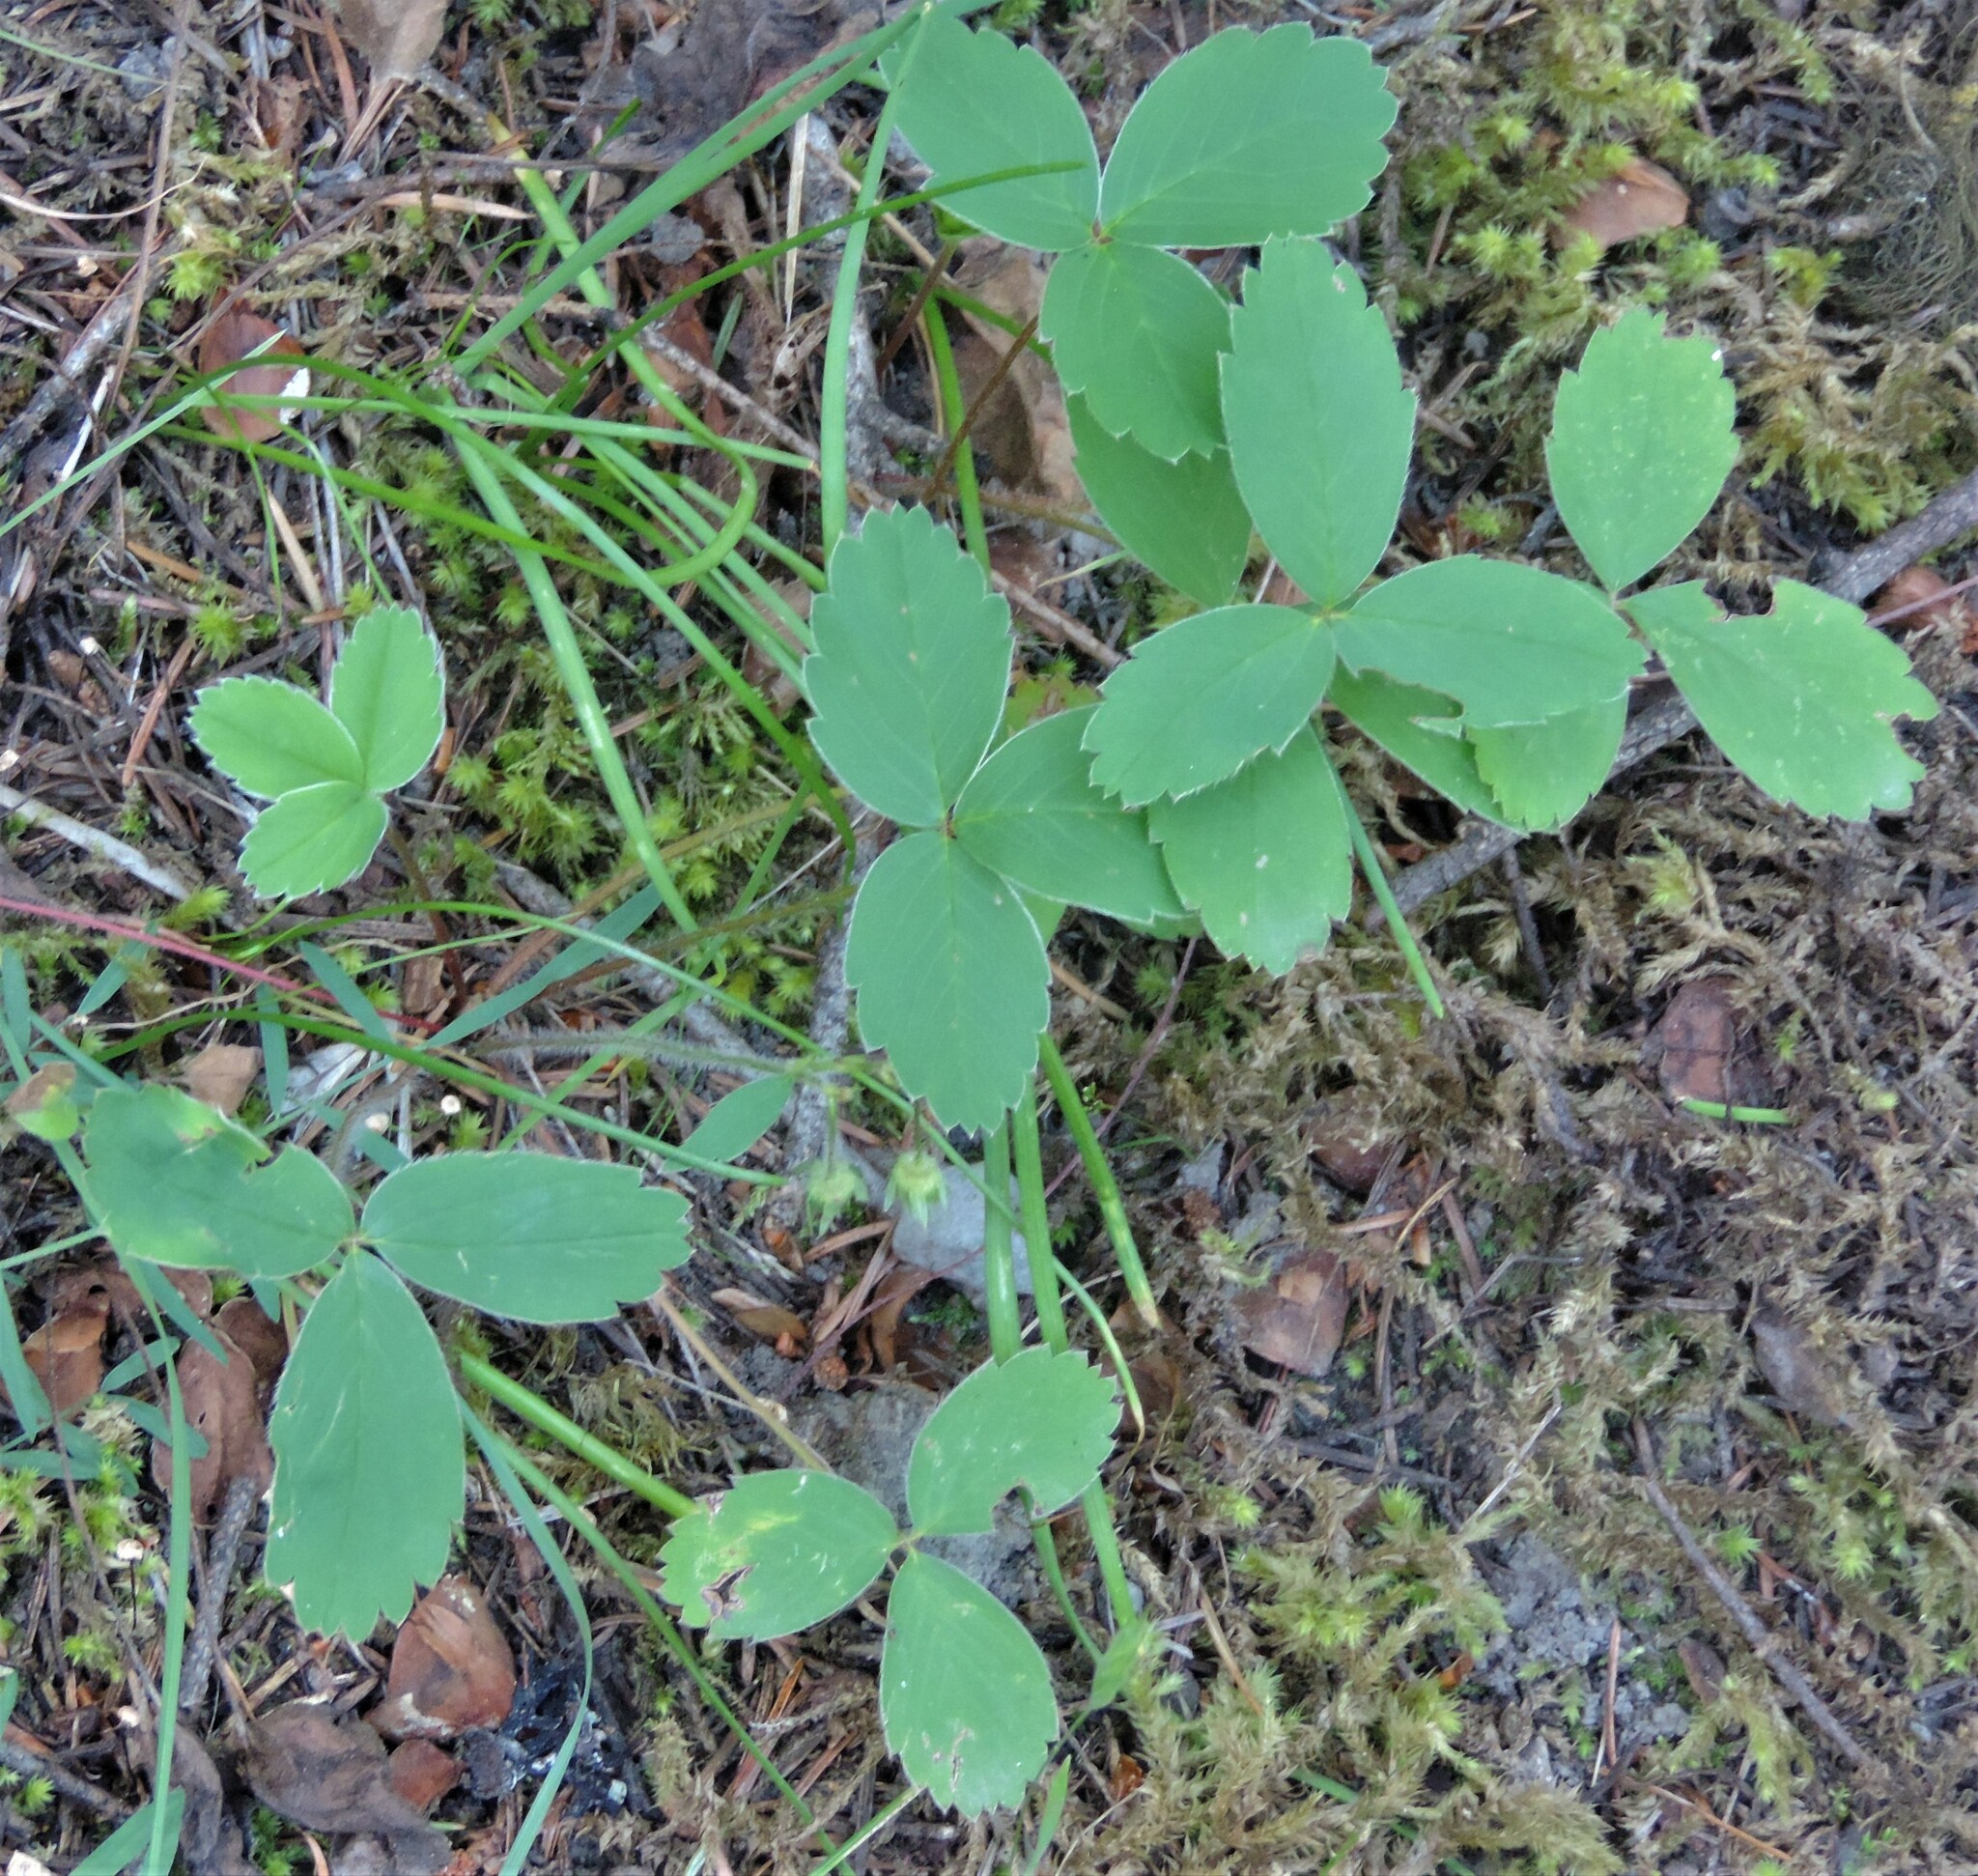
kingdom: Plantae
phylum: Tracheophyta
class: Magnoliopsida
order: Rosales
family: Rosaceae
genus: Fragaria
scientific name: Fragaria virginiana
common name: Thickleaved wild strawberry
